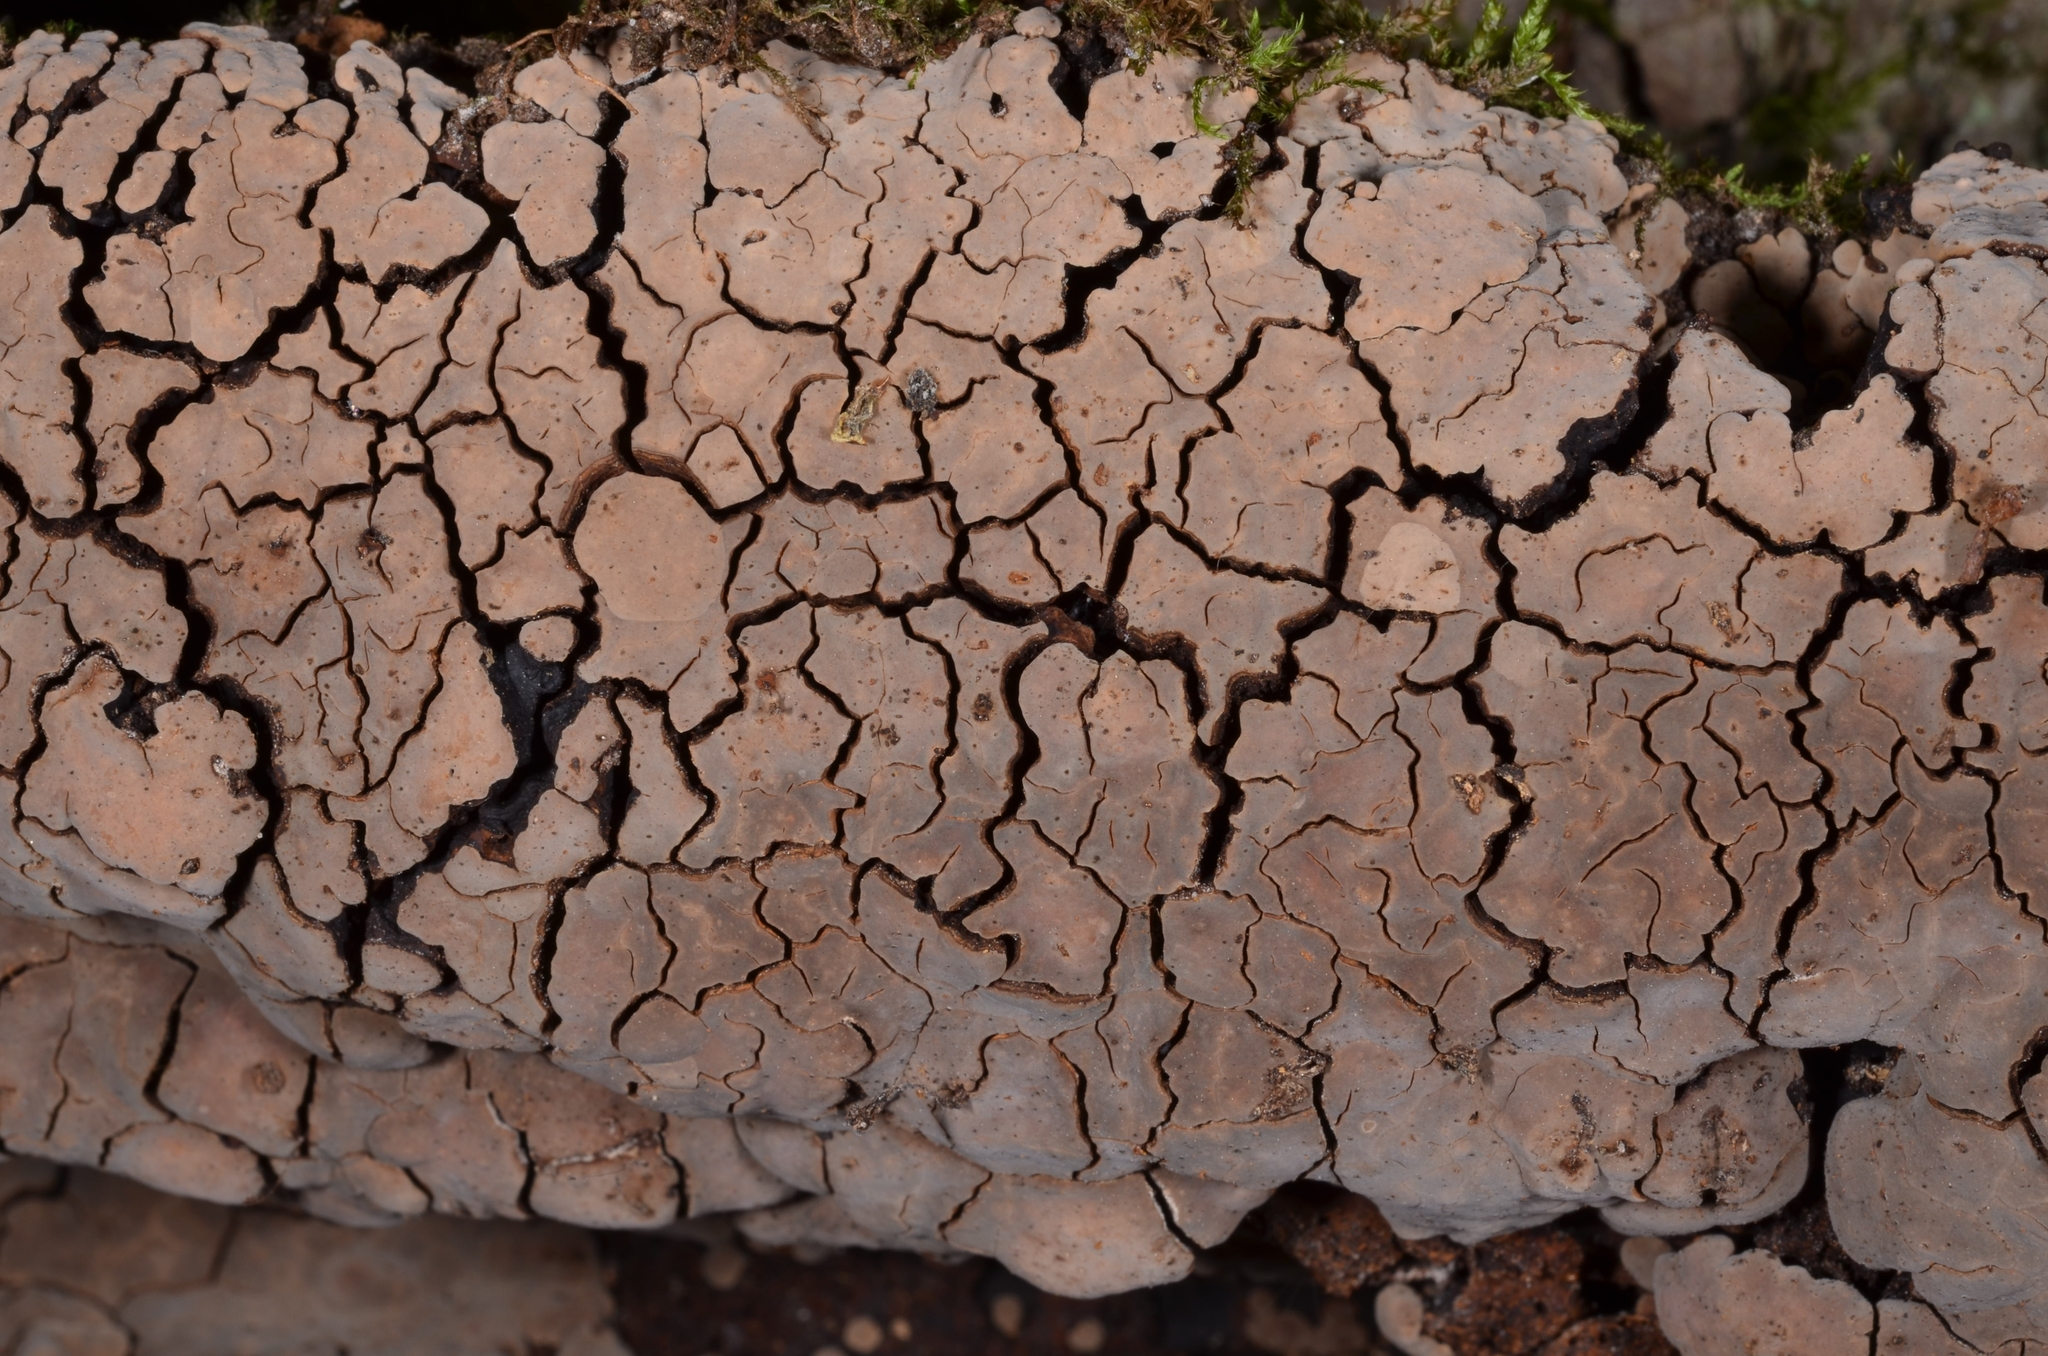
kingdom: Fungi
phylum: Basidiomycota
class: Agaricomycetes
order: Russulales
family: Stereaceae
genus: Xylobolus
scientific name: Xylobolus frustulatus
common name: Ceramic parchment
